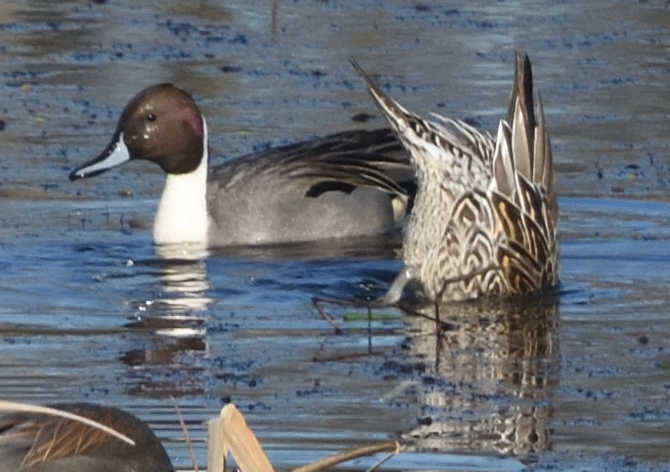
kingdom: Animalia
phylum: Chordata
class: Aves
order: Anseriformes
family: Anatidae
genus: Anas
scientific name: Anas acuta
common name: Northern pintail
